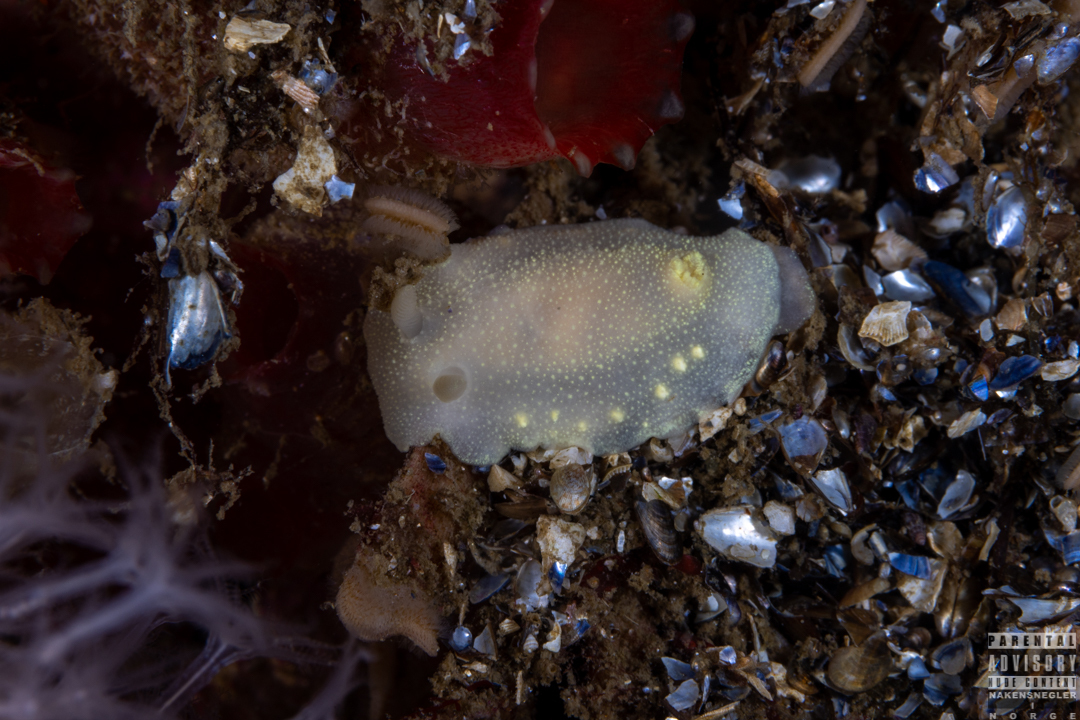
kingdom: Animalia
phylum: Mollusca
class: Gastropoda
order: Nudibranchia
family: Cadlinidae
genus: Cadlina
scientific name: Cadlina laevis
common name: White atlantic cadlina
